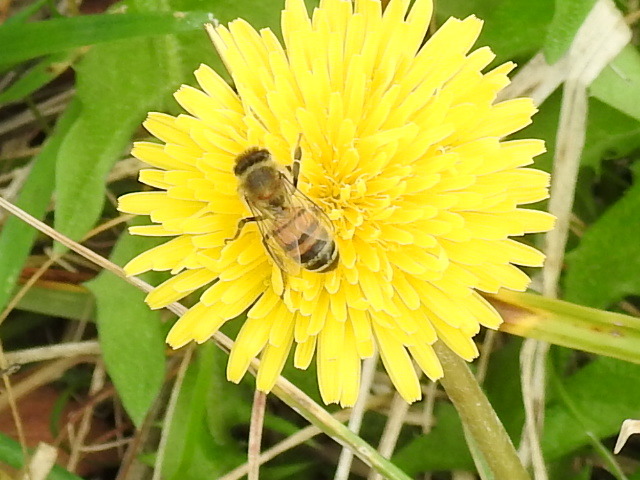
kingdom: Animalia
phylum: Arthropoda
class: Insecta
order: Hymenoptera
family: Apidae
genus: Apis
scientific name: Apis mellifera
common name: Honey bee
